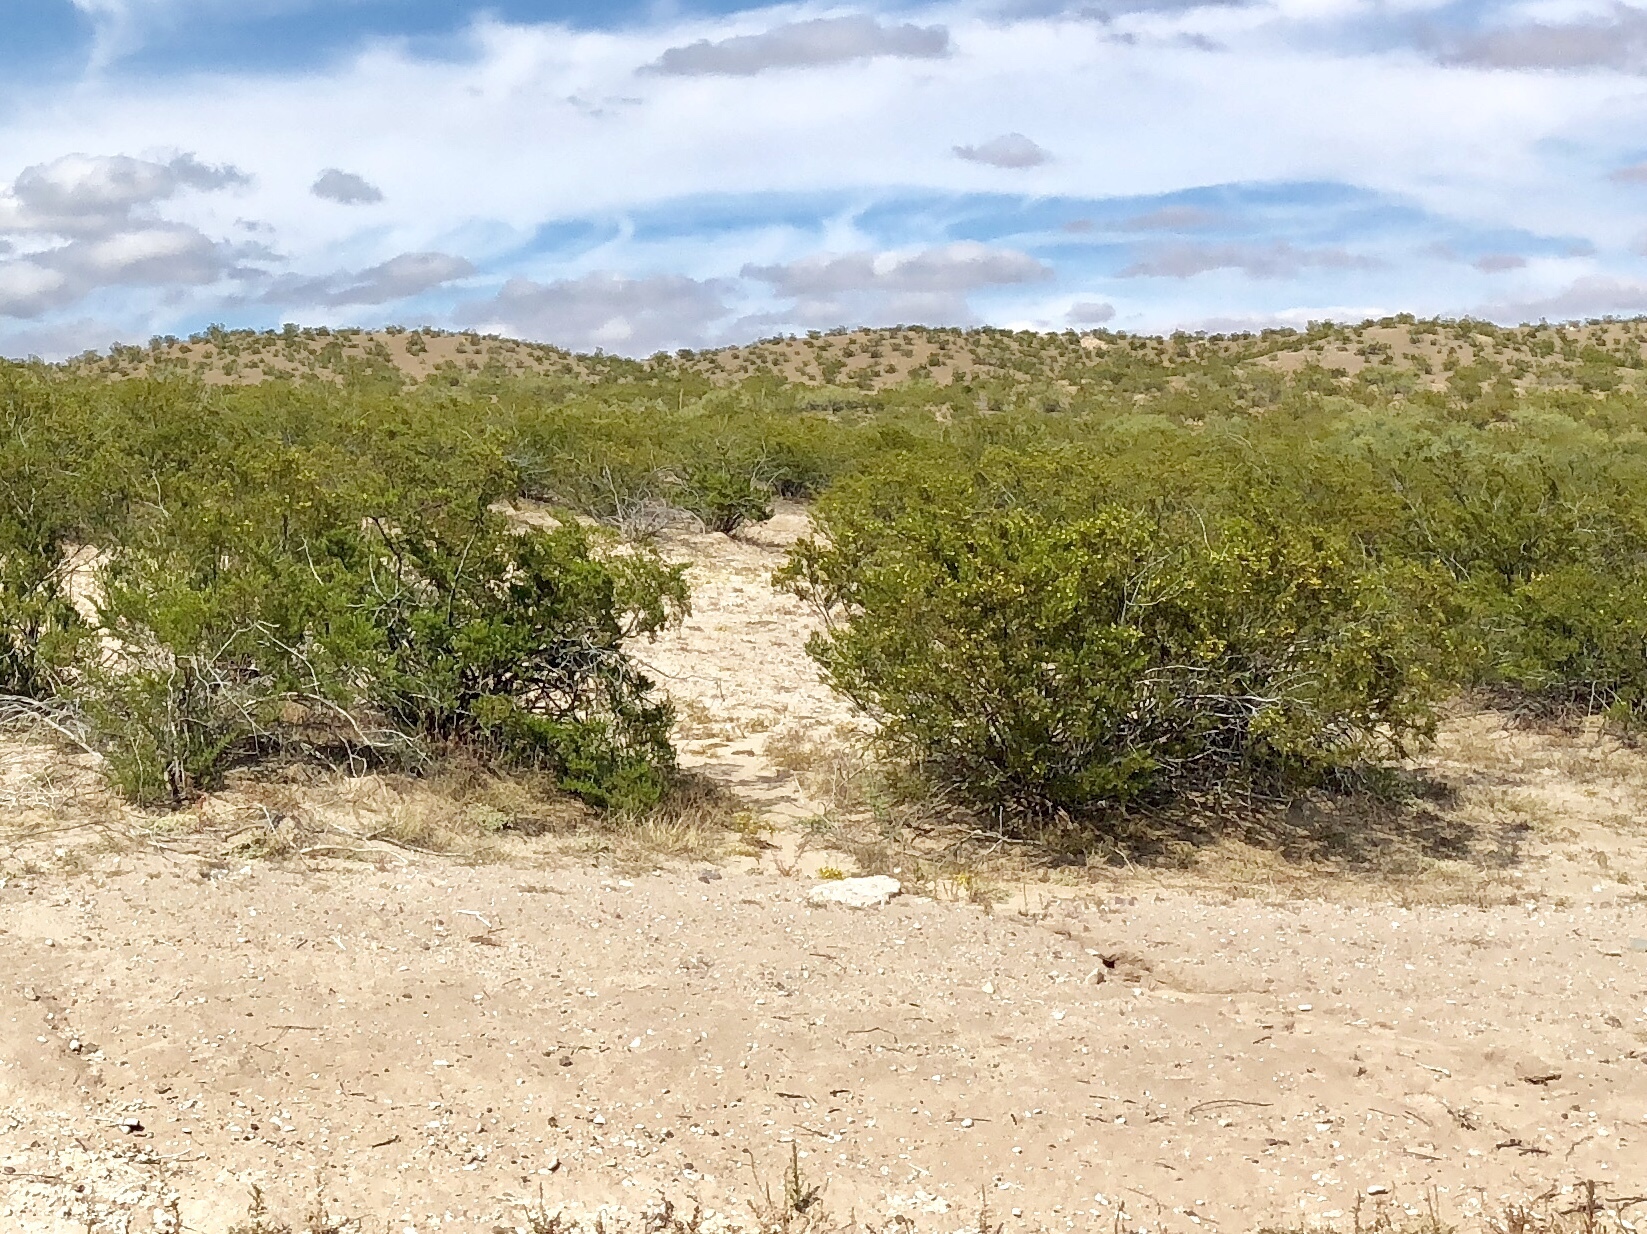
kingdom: Plantae
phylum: Tracheophyta
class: Magnoliopsida
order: Zygophyllales
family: Zygophyllaceae
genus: Larrea
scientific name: Larrea tridentata
